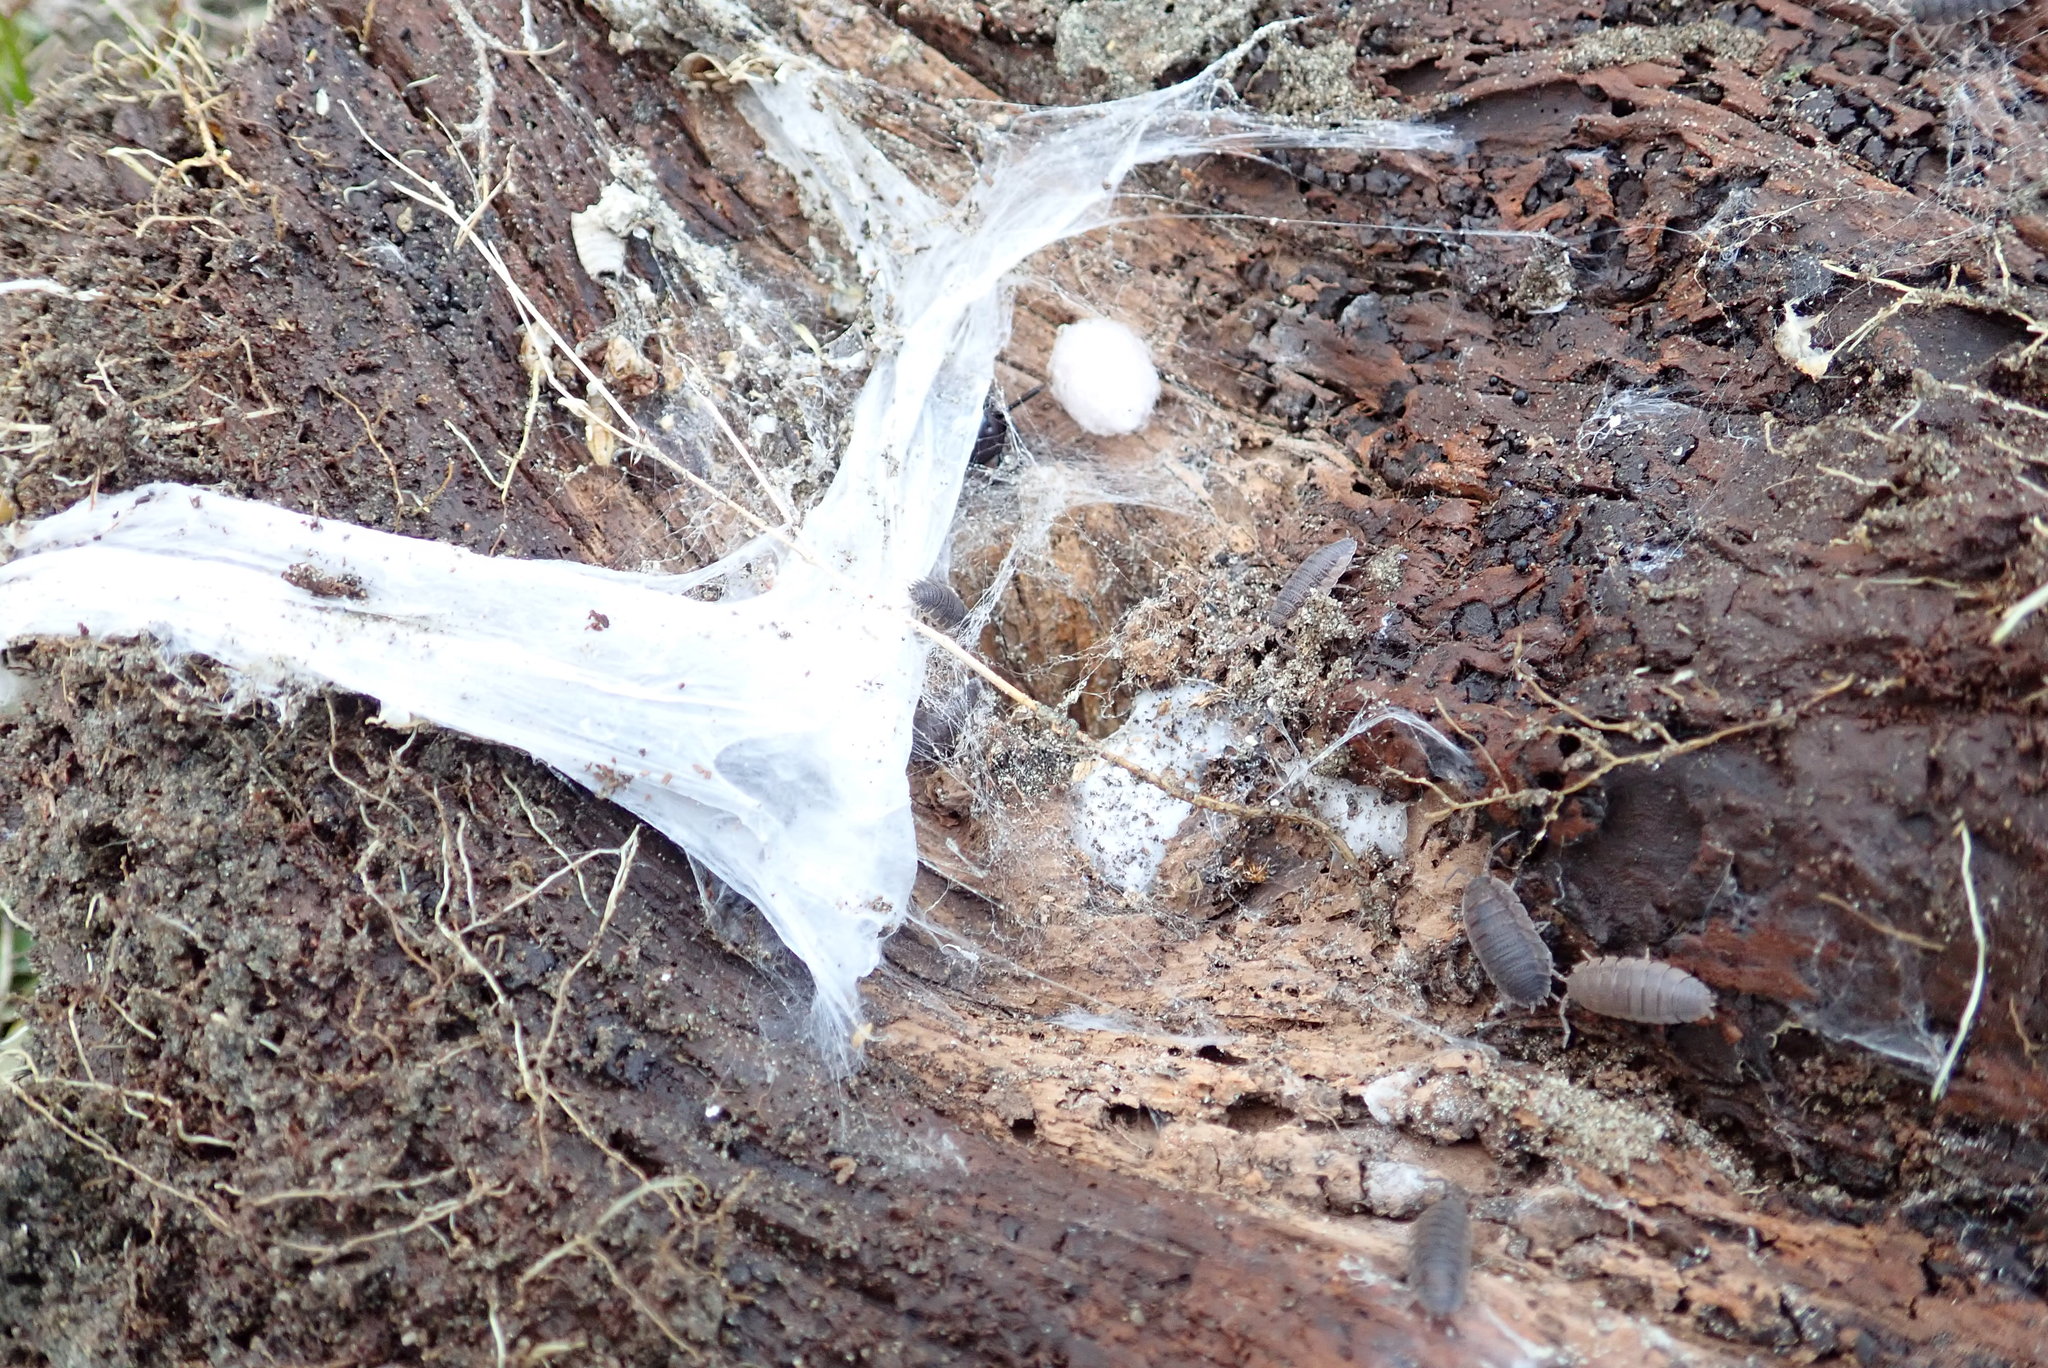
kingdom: Animalia
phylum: Arthropoda
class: Arachnida
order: Araneae
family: Theridiidae
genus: Steatoda
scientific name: Steatoda capensis
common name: Cobweb weaver
